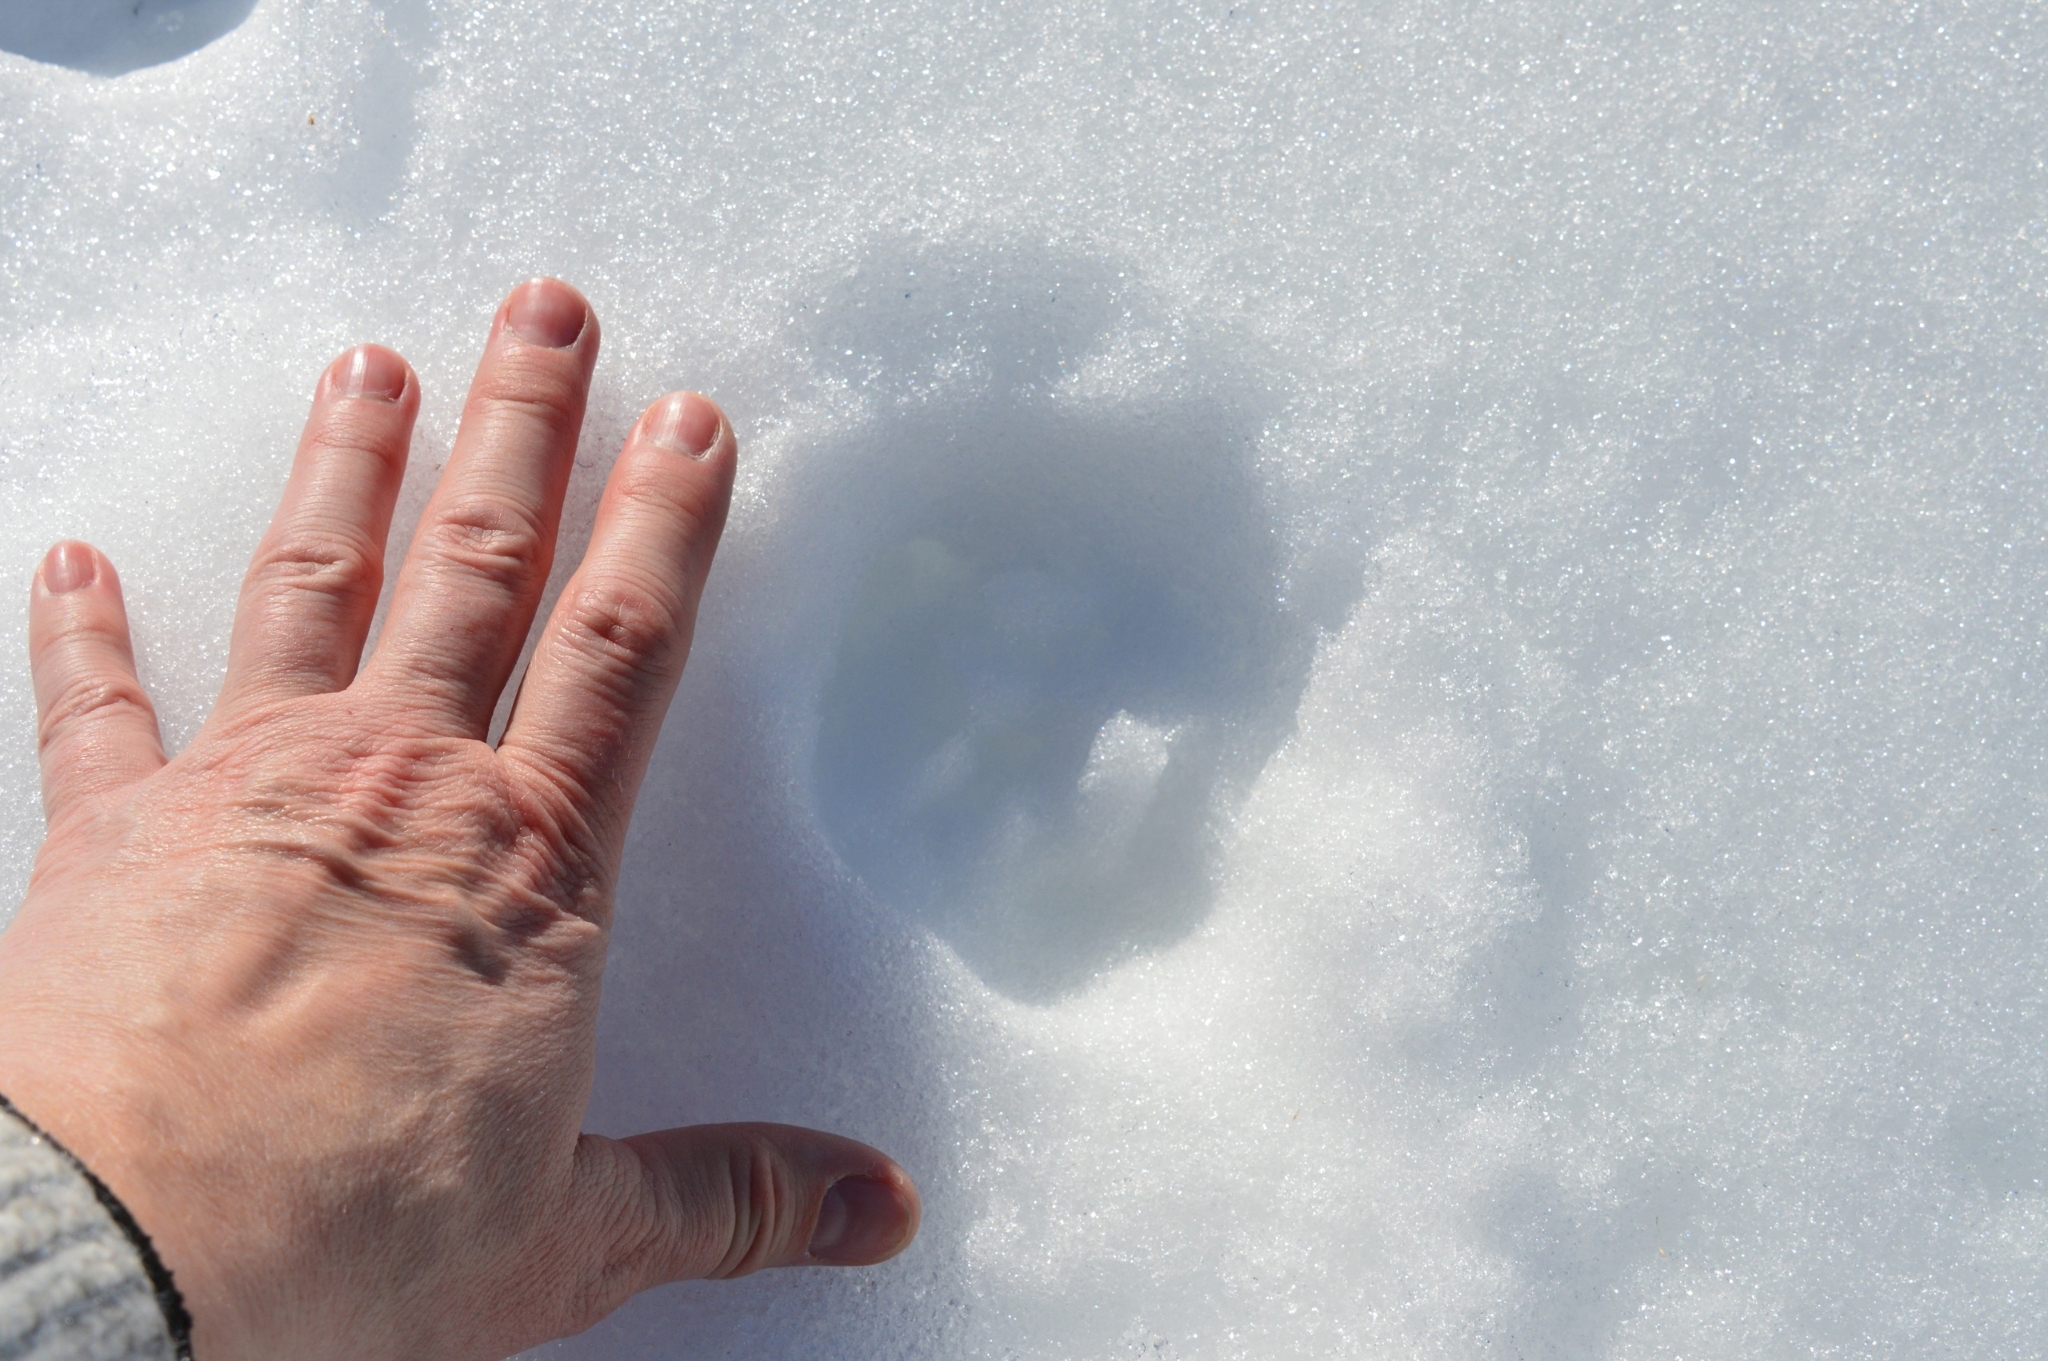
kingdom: Animalia
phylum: Chordata
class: Mammalia
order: Carnivora
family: Felidae
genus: Lynx
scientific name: Lynx lynx
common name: Eurasian lynx
